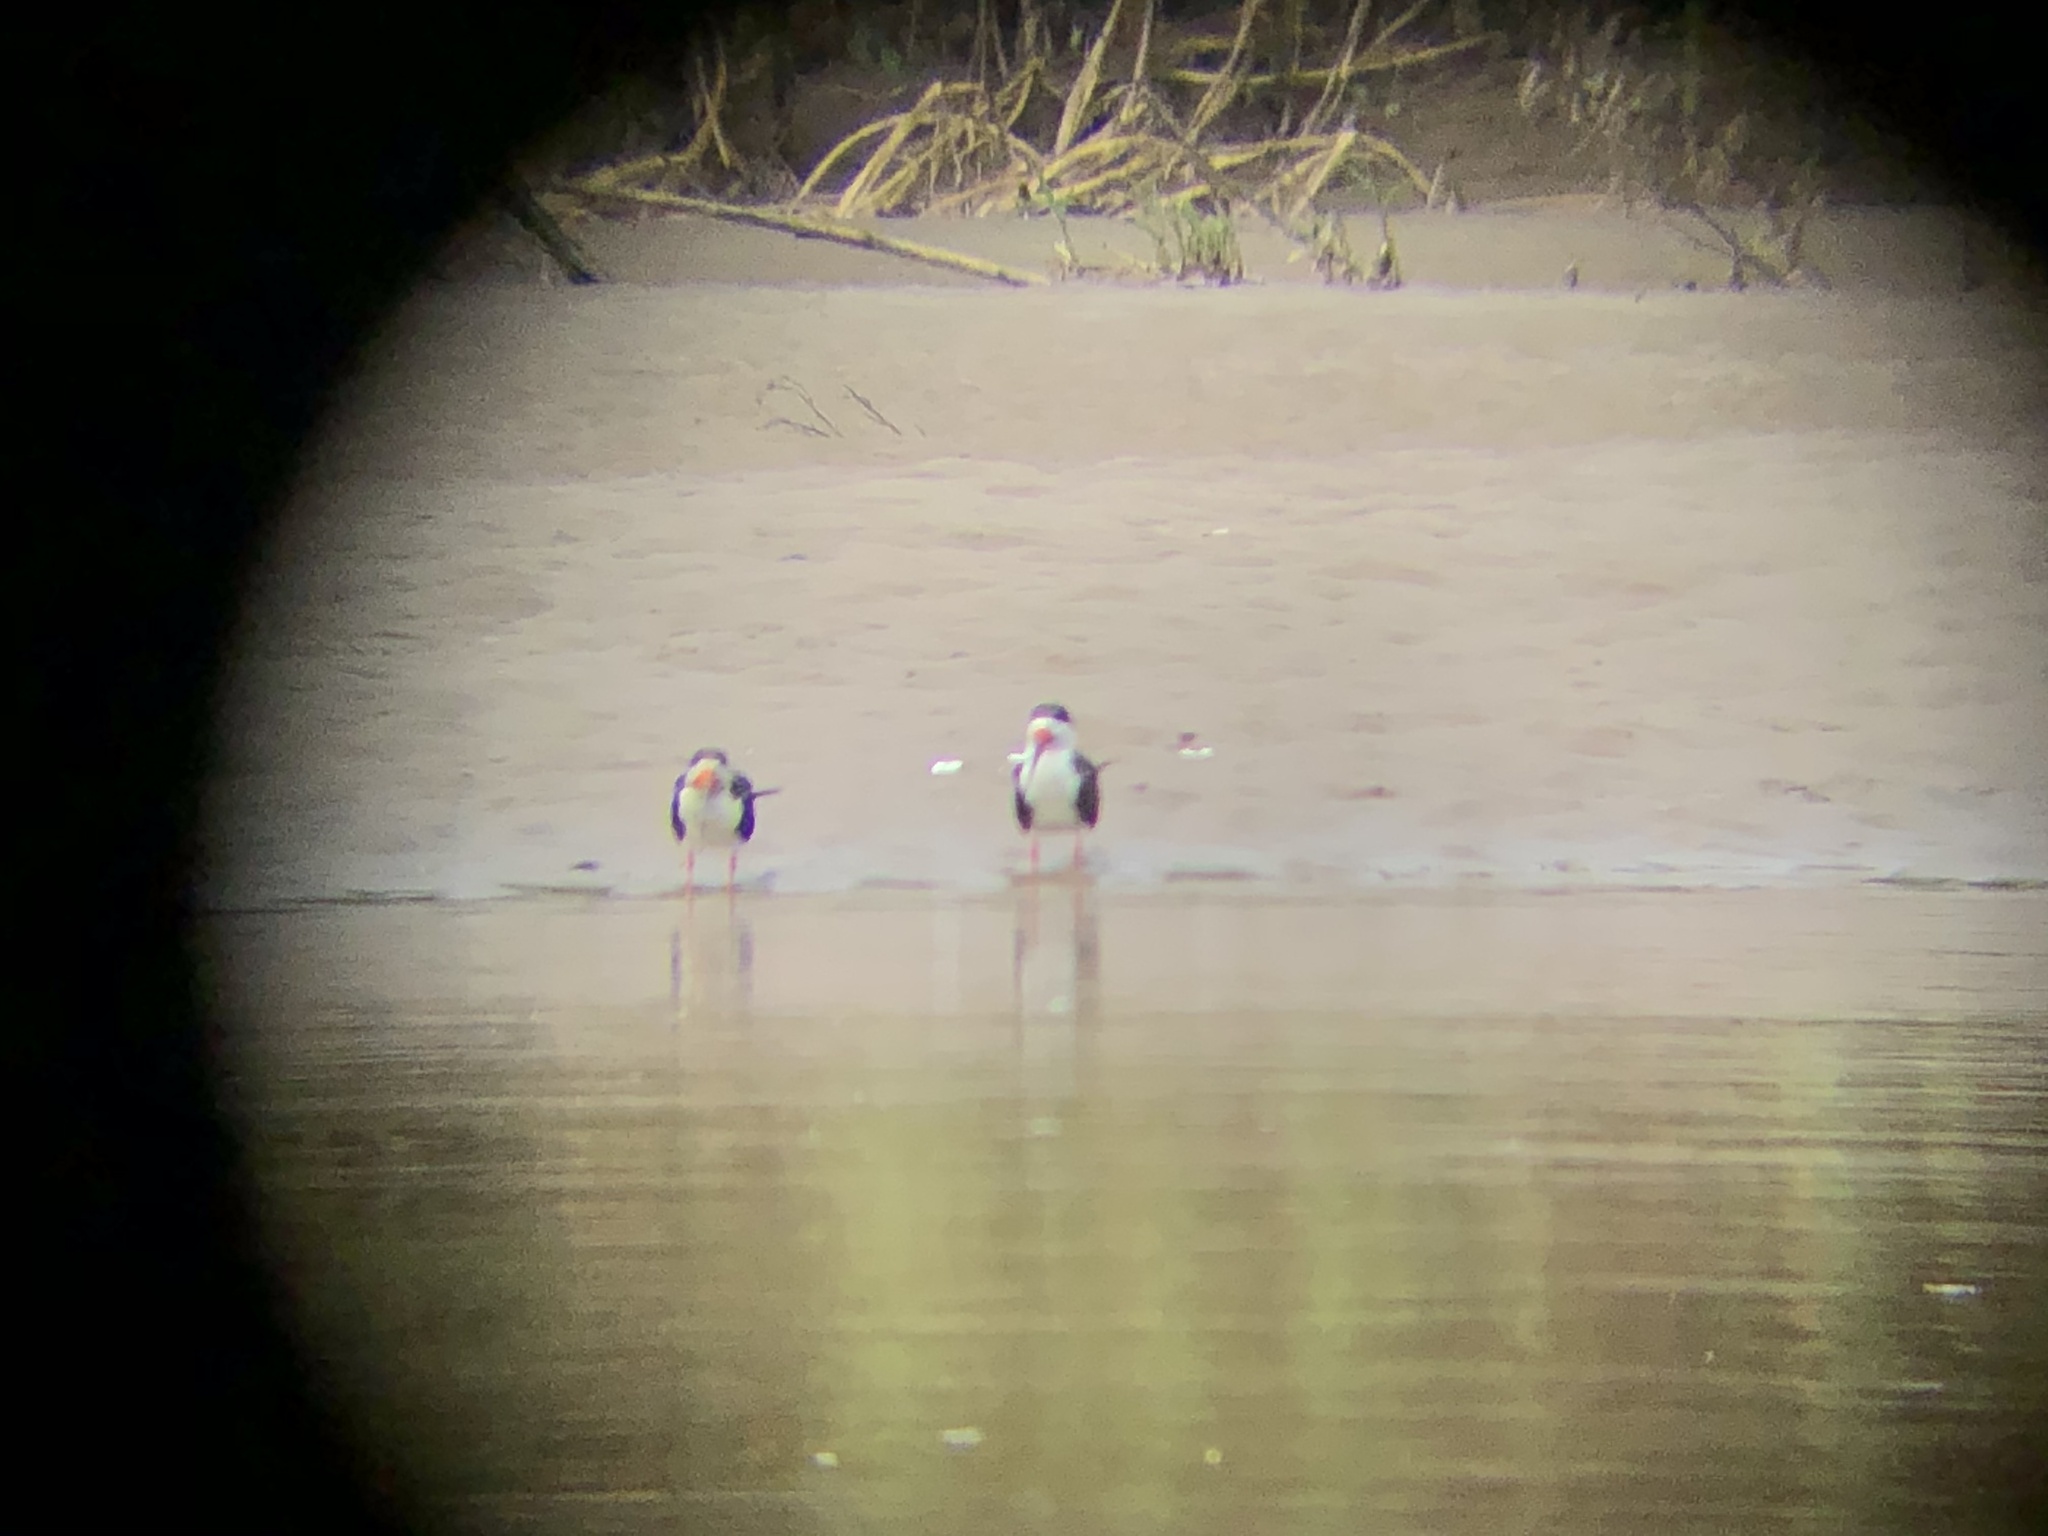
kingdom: Animalia
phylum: Chordata
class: Aves
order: Charadriiformes
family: Laridae
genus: Rynchops
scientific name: Rynchops niger
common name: Black skimmer
